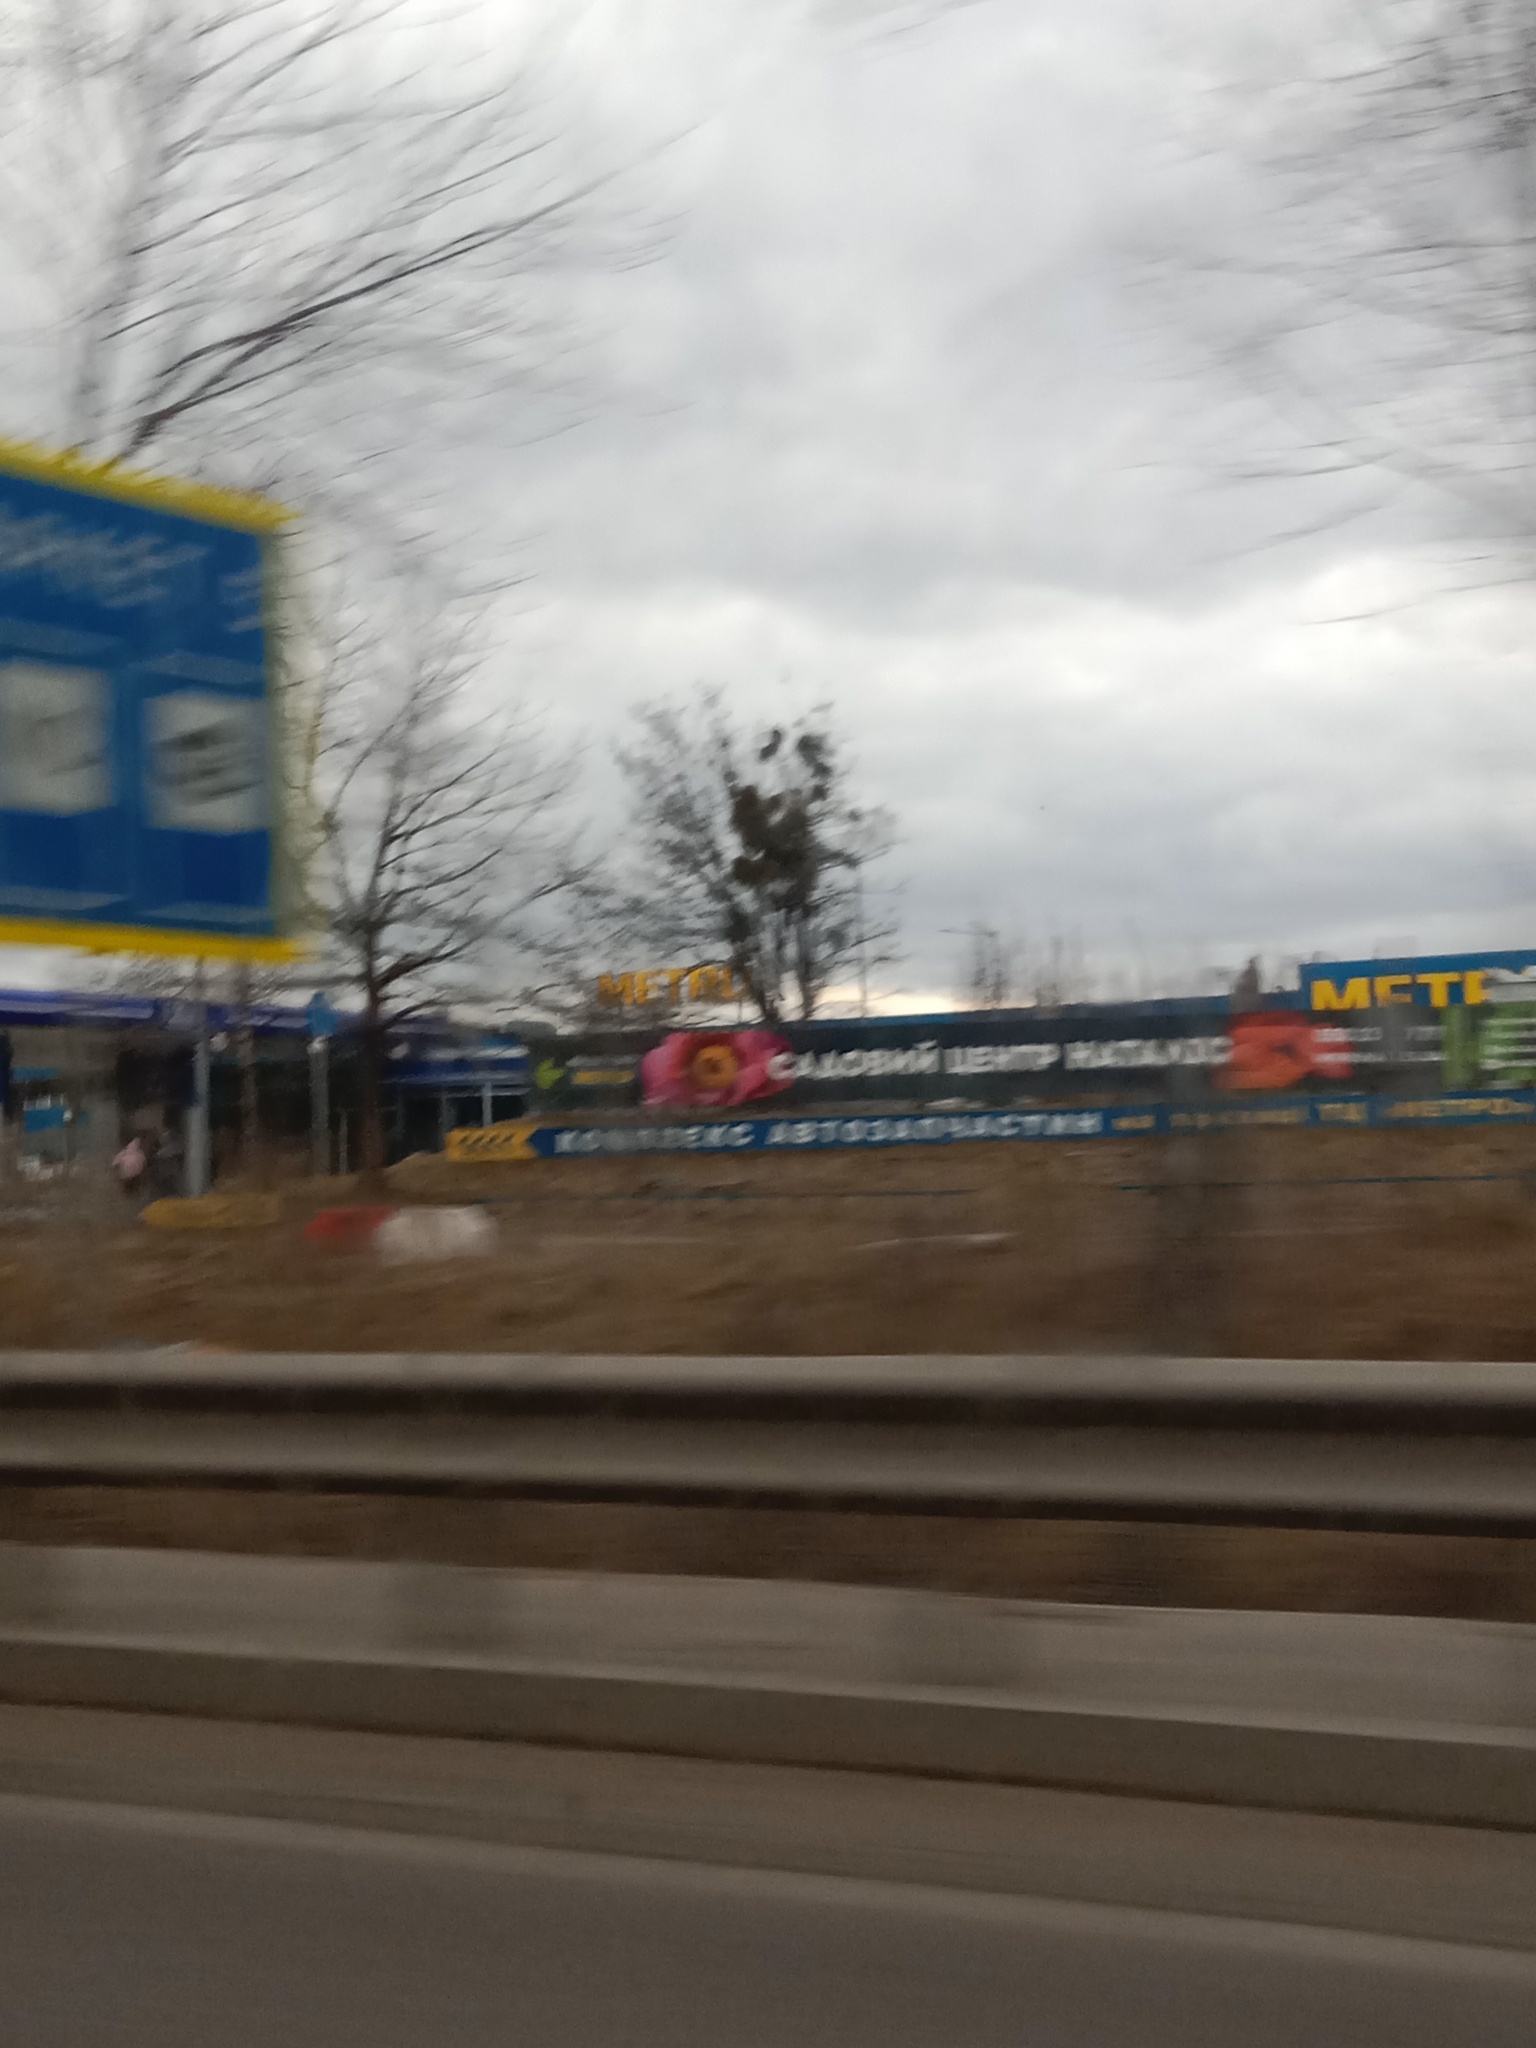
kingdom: Plantae
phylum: Tracheophyta
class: Magnoliopsida
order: Santalales
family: Viscaceae
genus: Viscum
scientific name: Viscum album
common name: Mistletoe
